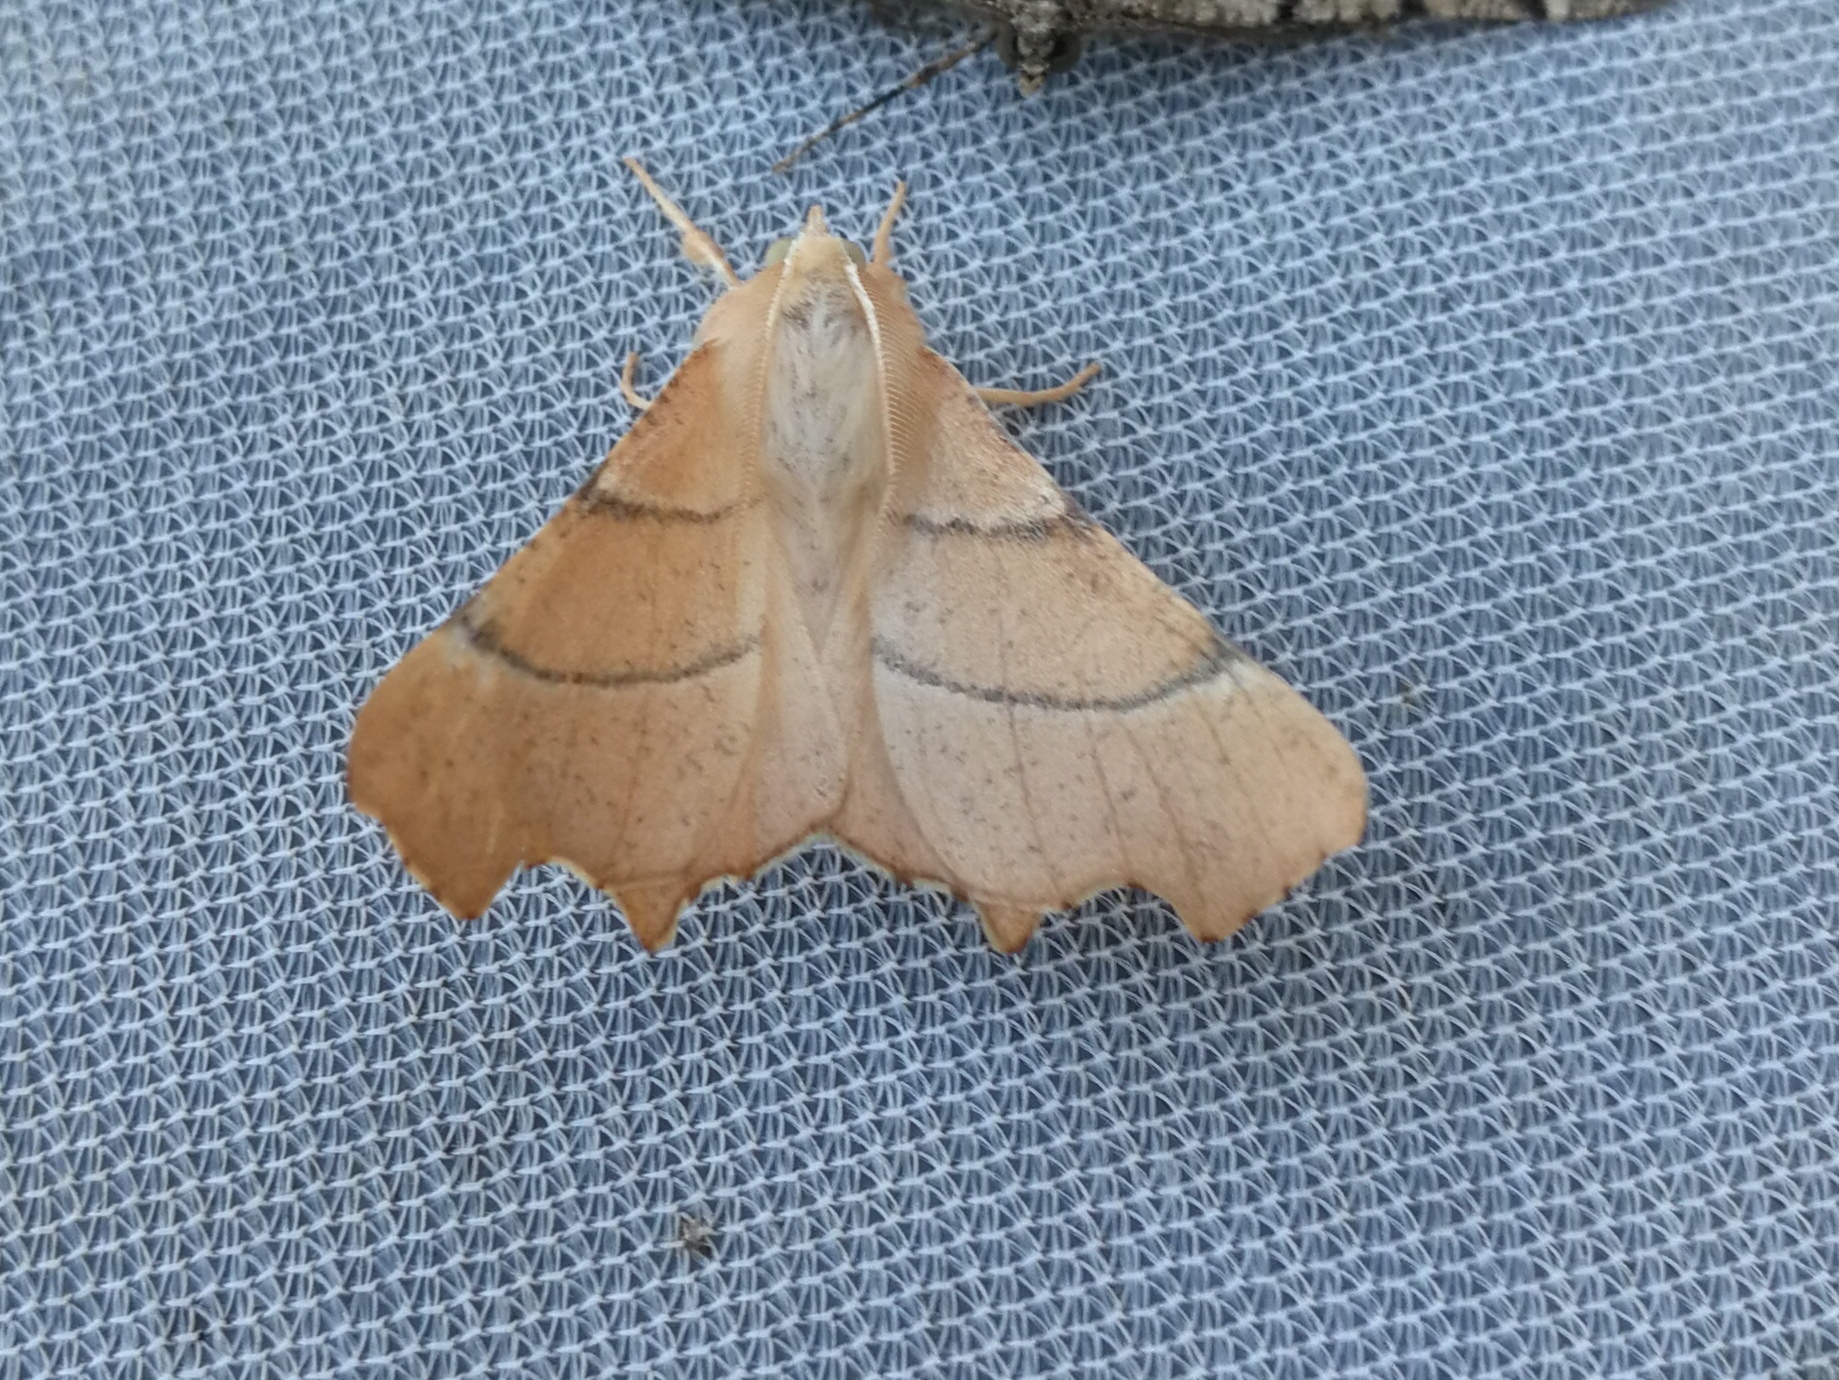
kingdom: Animalia
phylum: Arthropoda
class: Insecta
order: Lepidoptera
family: Geometridae
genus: Ennomos
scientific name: Ennomos quercaria
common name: Clouded august thorn
